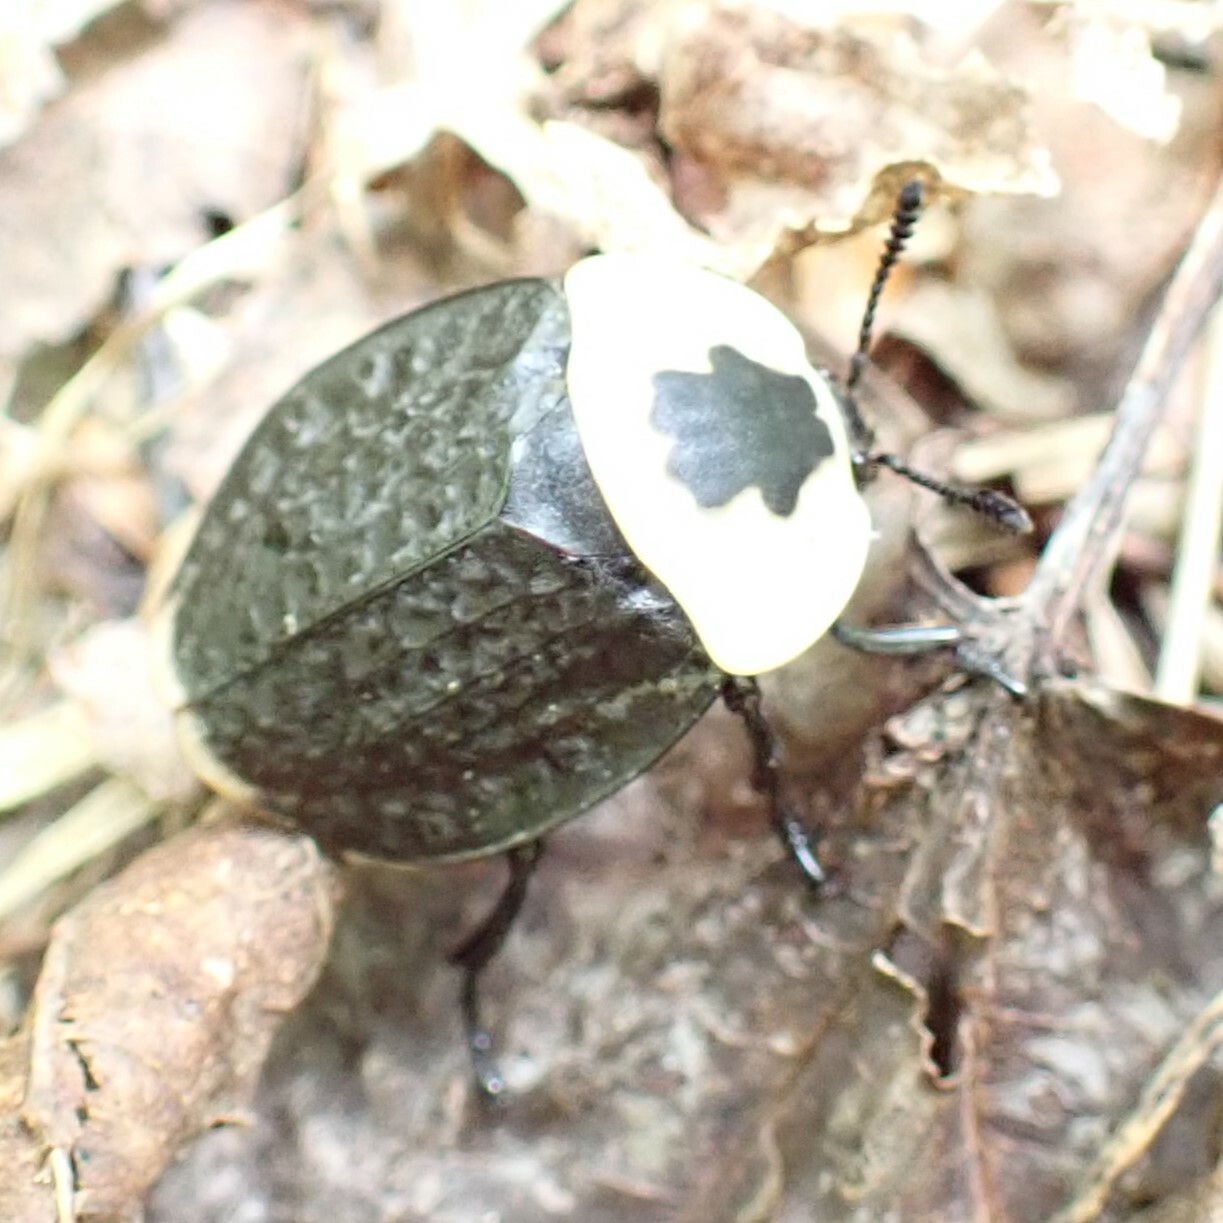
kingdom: Animalia
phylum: Arthropoda
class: Insecta
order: Coleoptera
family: Staphylinidae
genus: Necrophila
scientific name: Necrophila americana
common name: American carrion beetle
